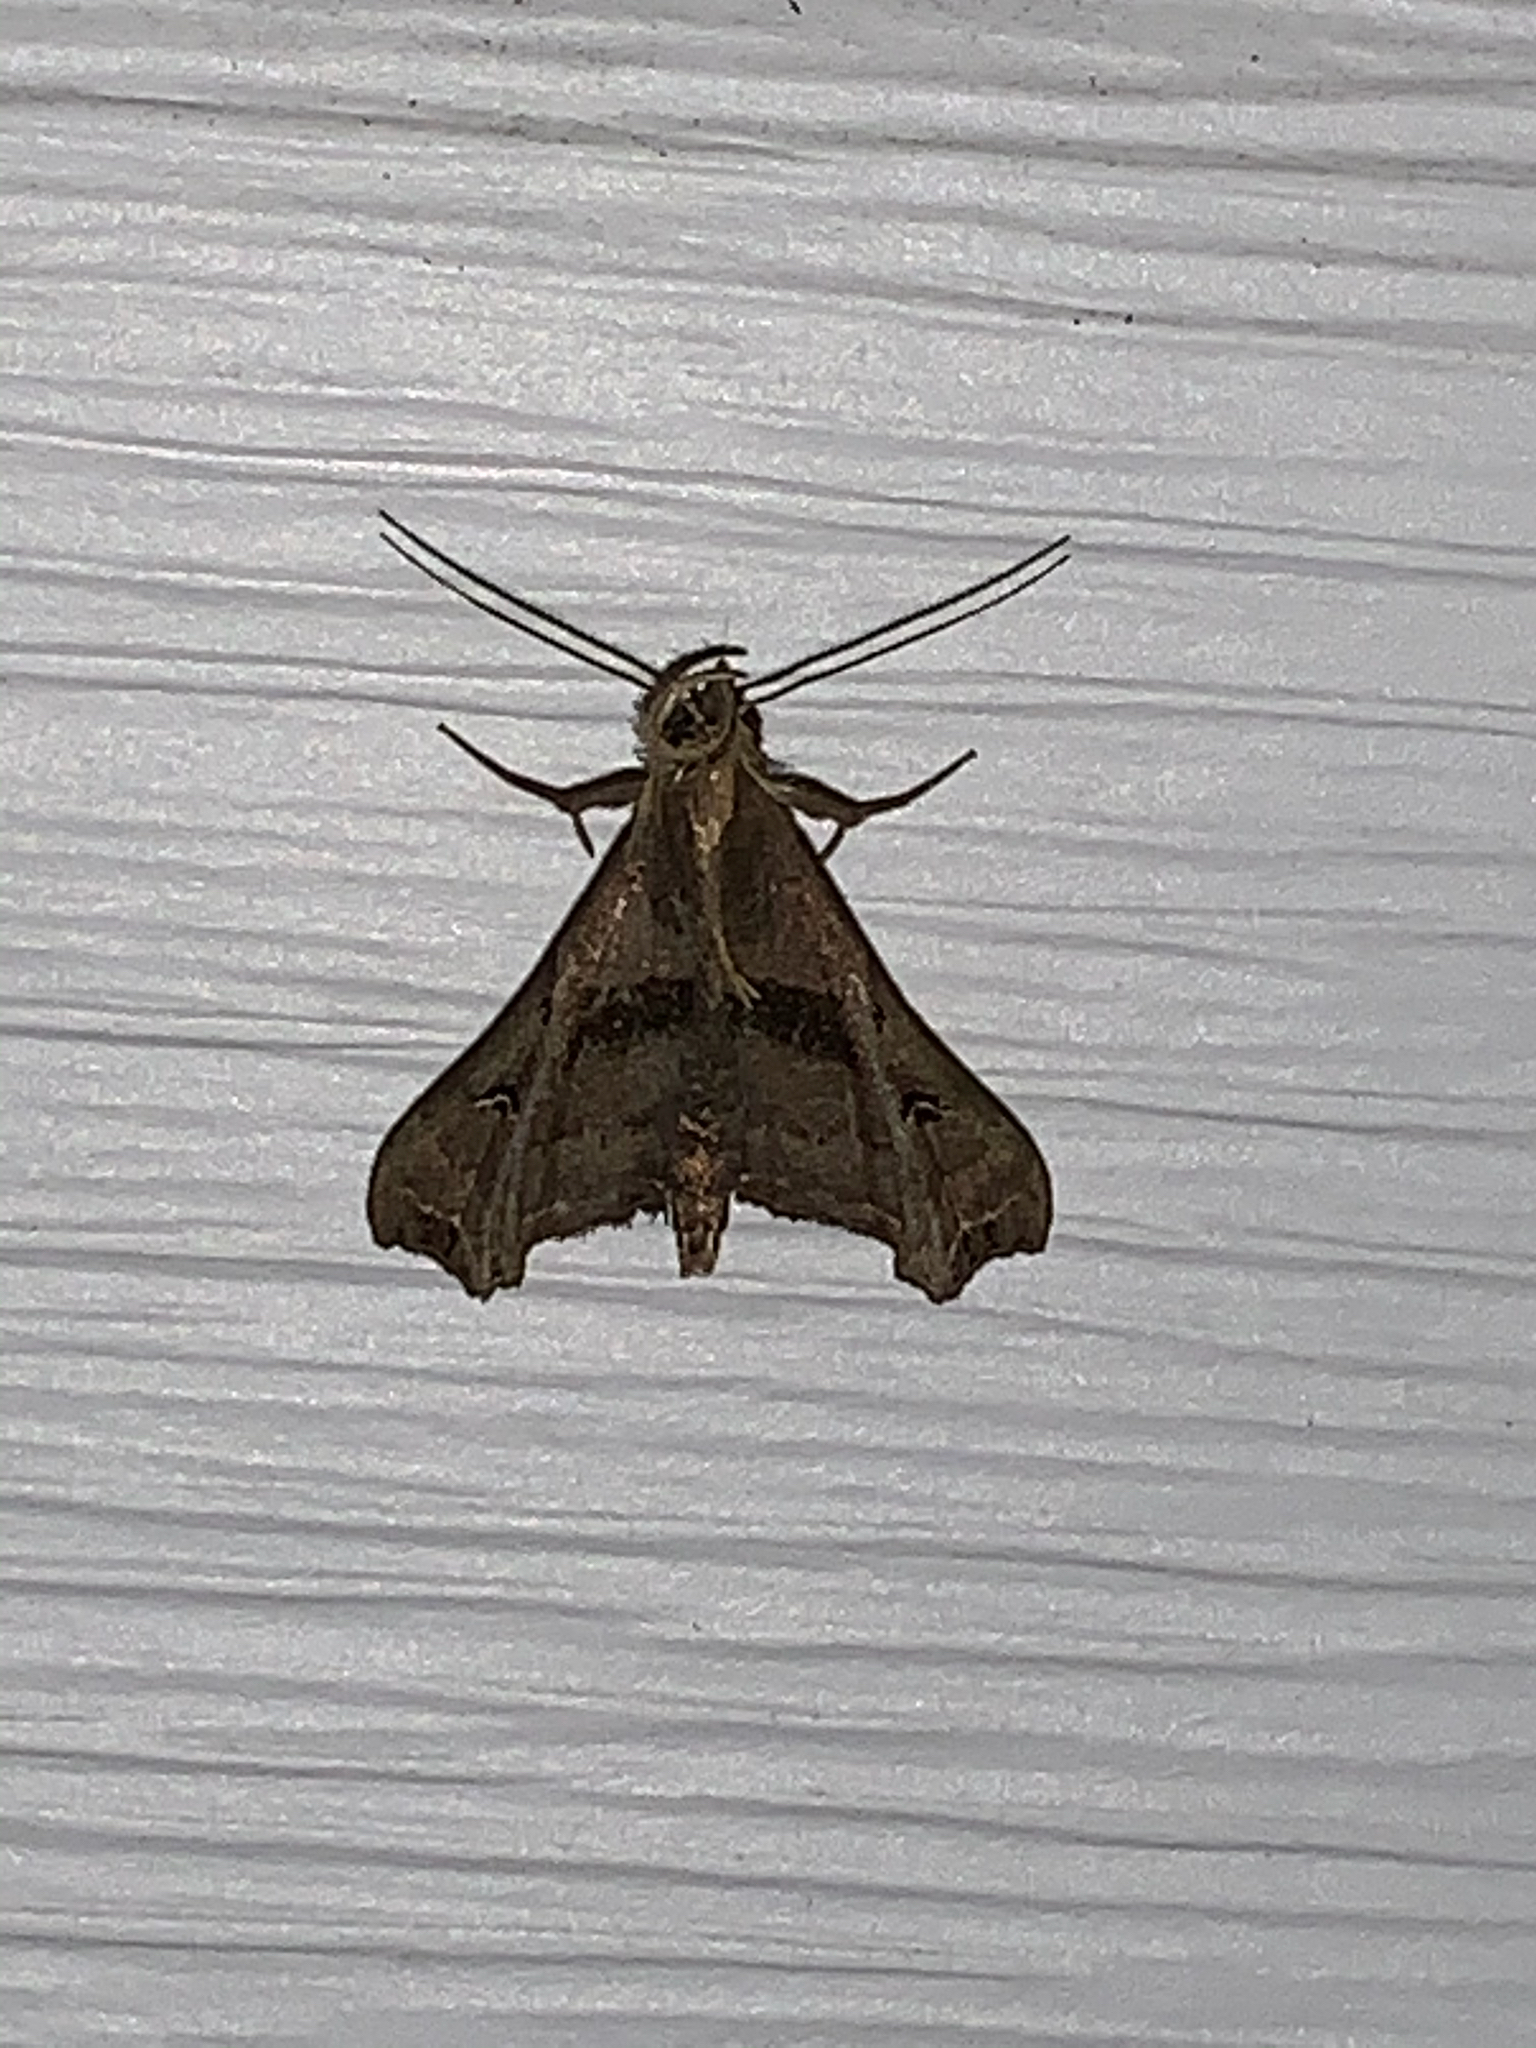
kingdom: Animalia
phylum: Arthropoda
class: Insecta
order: Lepidoptera
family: Erebidae
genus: Palthis
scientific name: Palthis asopialis
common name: Faint-spotted palthis moth
